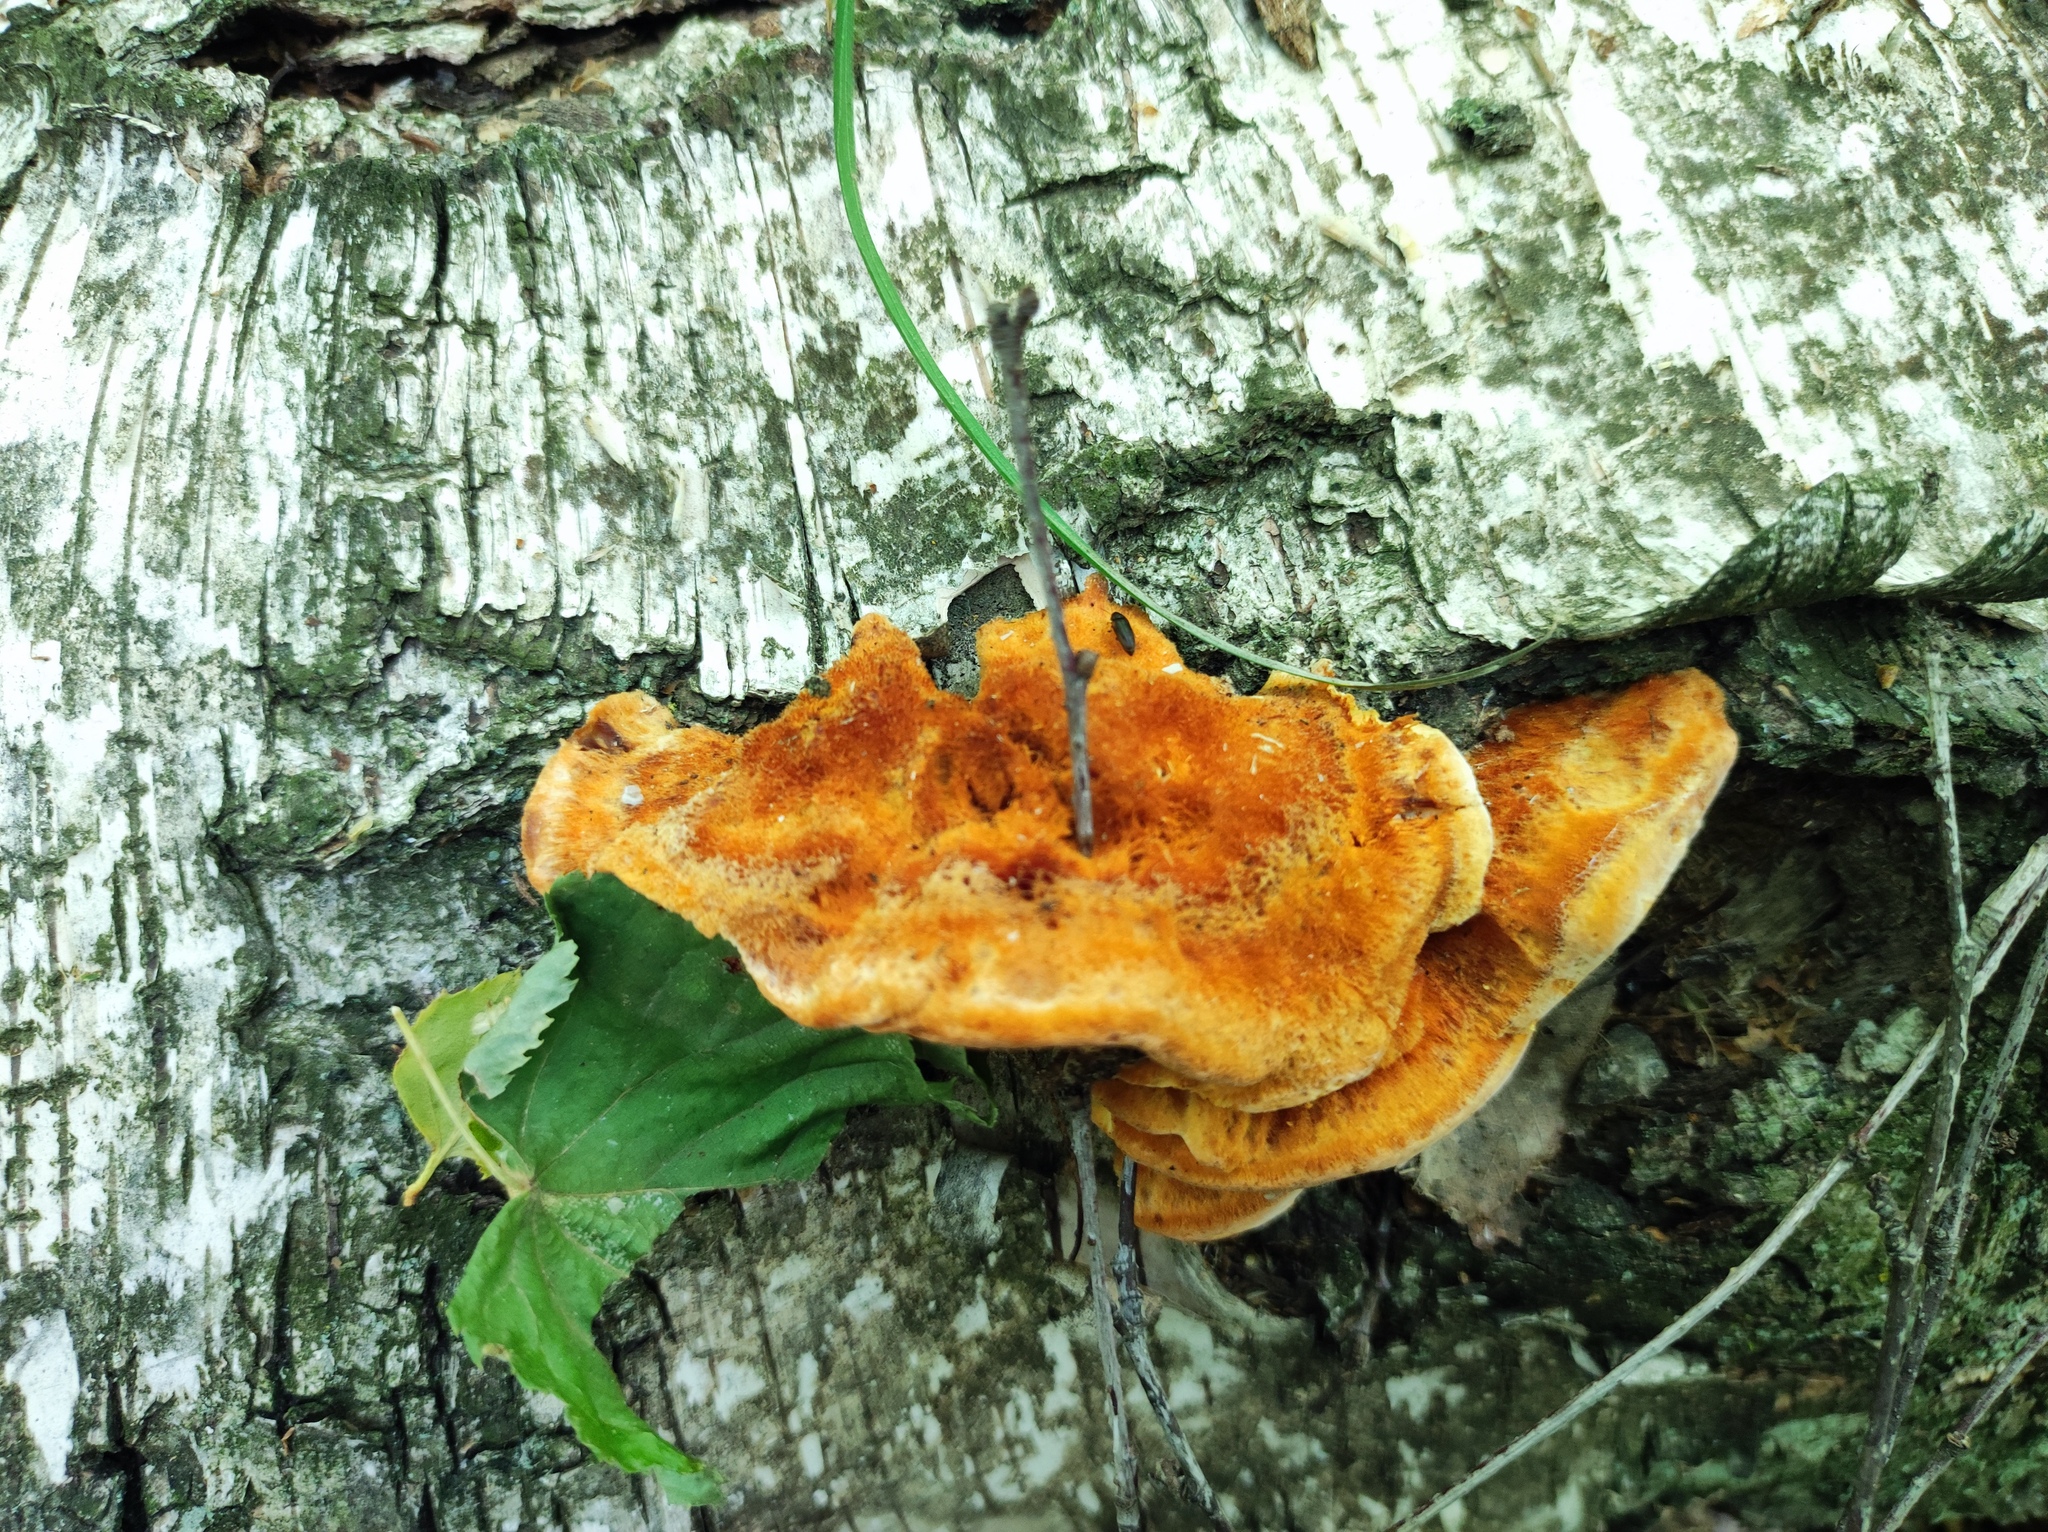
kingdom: Fungi
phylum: Basidiomycota
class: Agaricomycetes
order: Polyporales
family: Pycnoporellaceae
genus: Pycnoporellus
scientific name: Pycnoporellus fulgens
